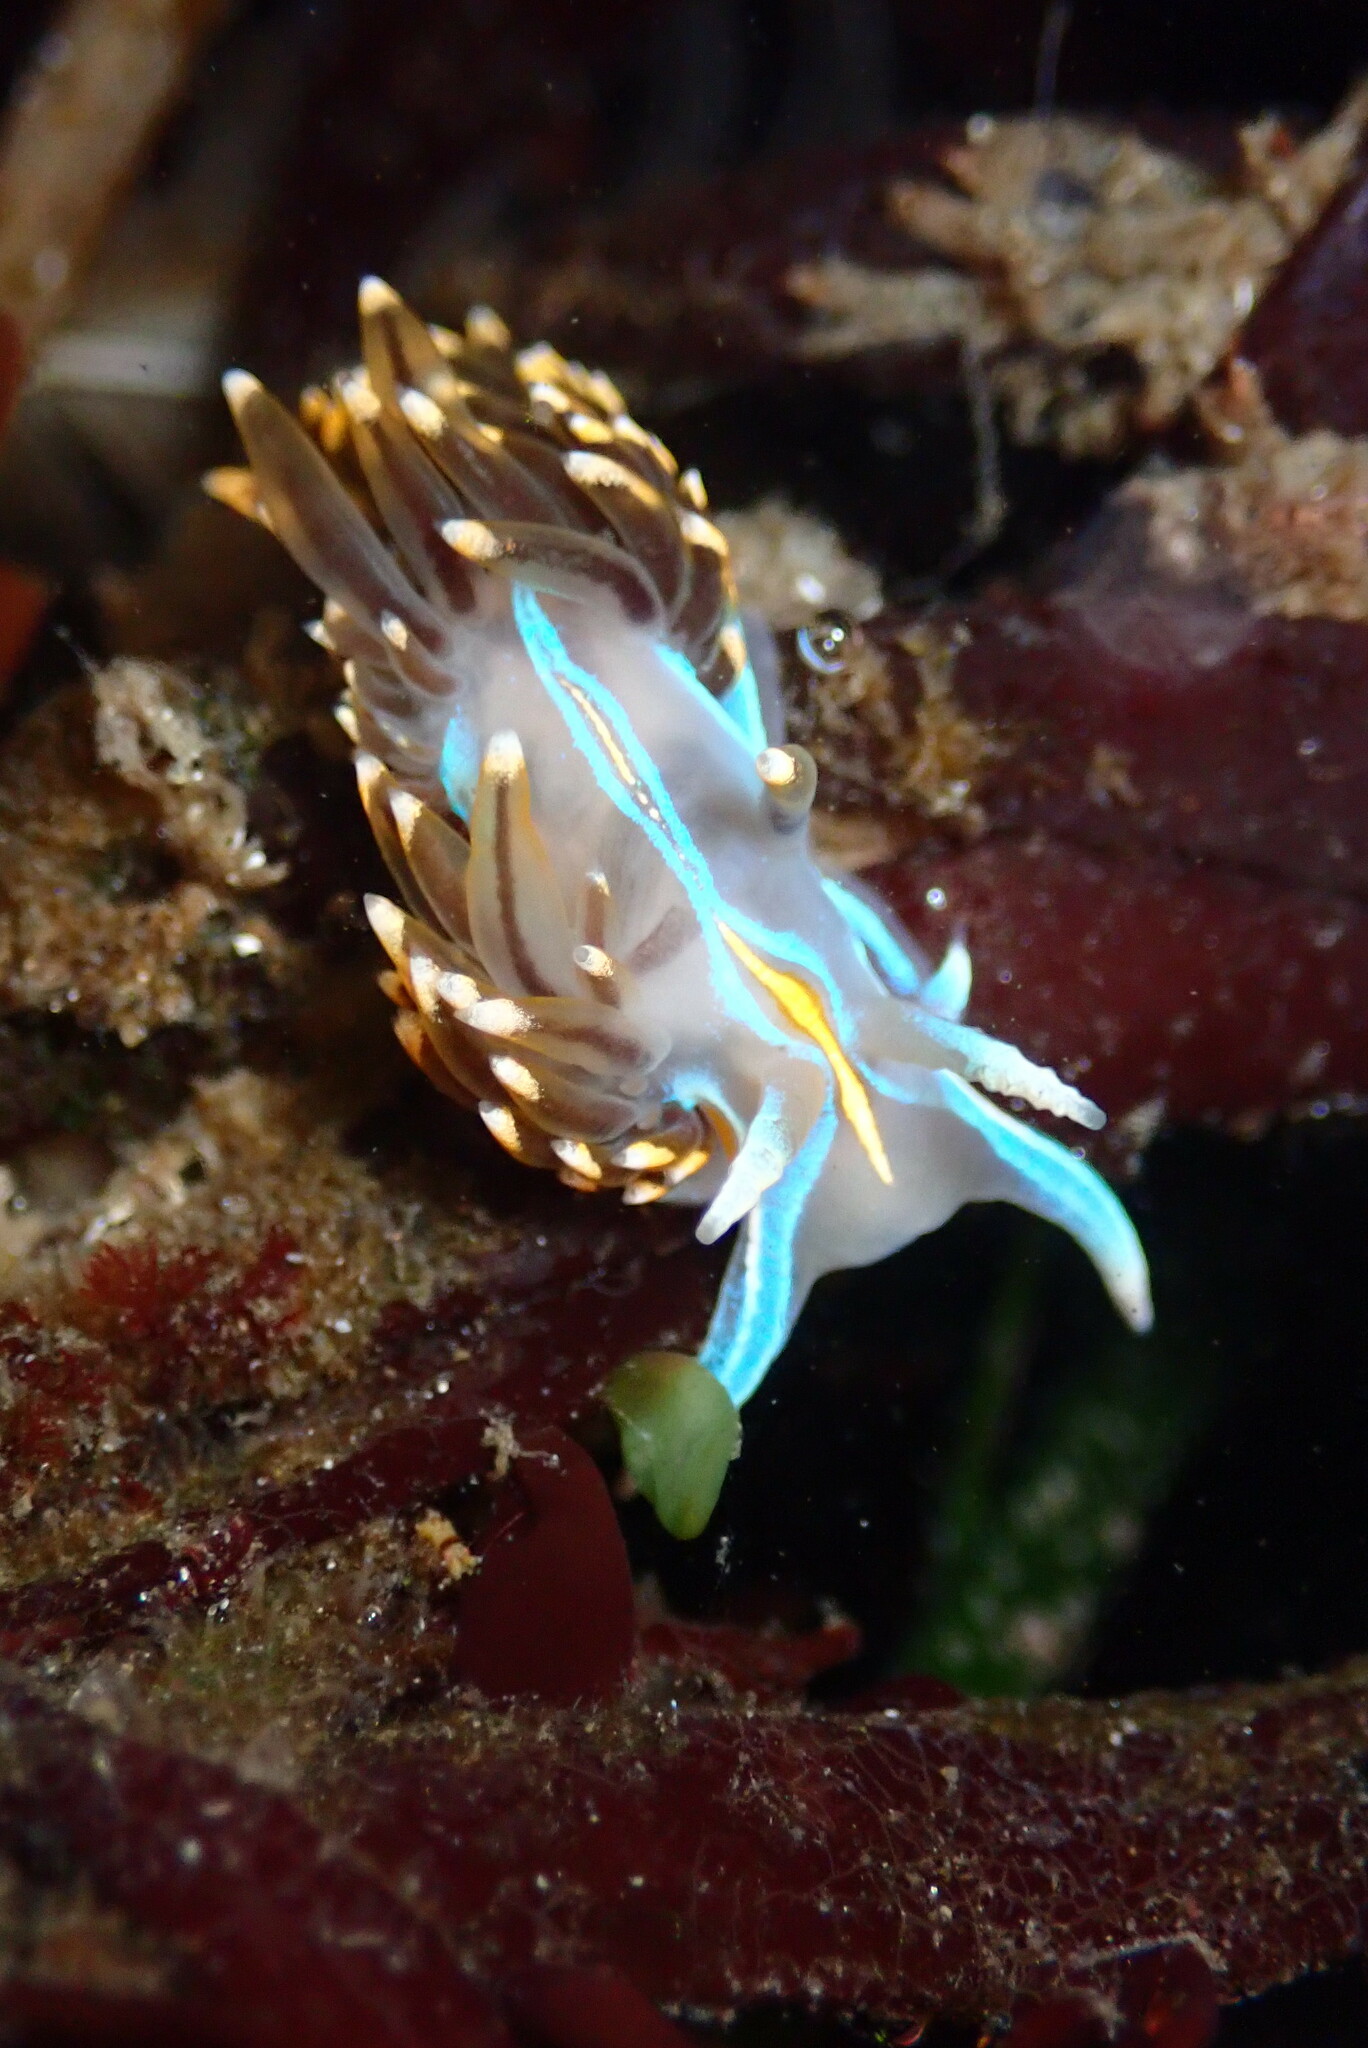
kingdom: Animalia
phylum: Mollusca
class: Gastropoda
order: Nudibranchia
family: Myrrhinidae
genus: Hermissenda
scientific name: Hermissenda opalescens
